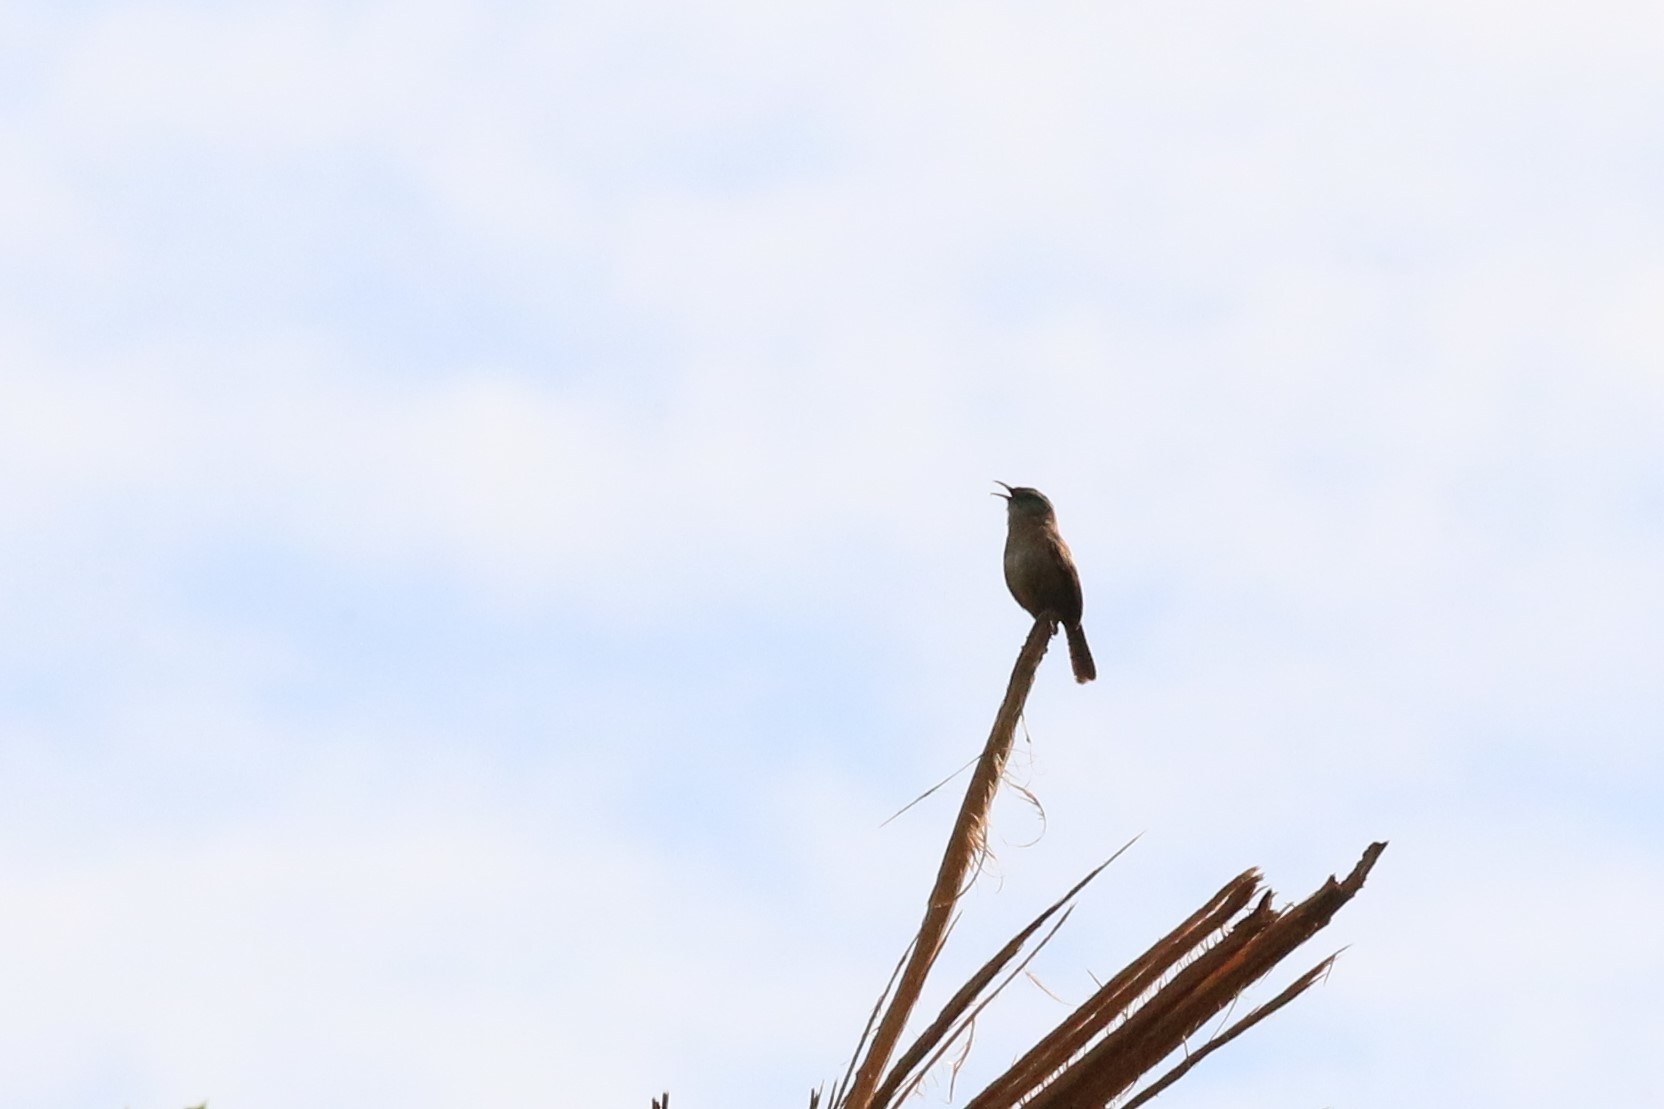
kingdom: Animalia
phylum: Chordata
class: Aves
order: Passeriformes
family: Troglodytidae
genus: Thryothorus
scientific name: Thryothorus ludovicianus
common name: Carolina wren
